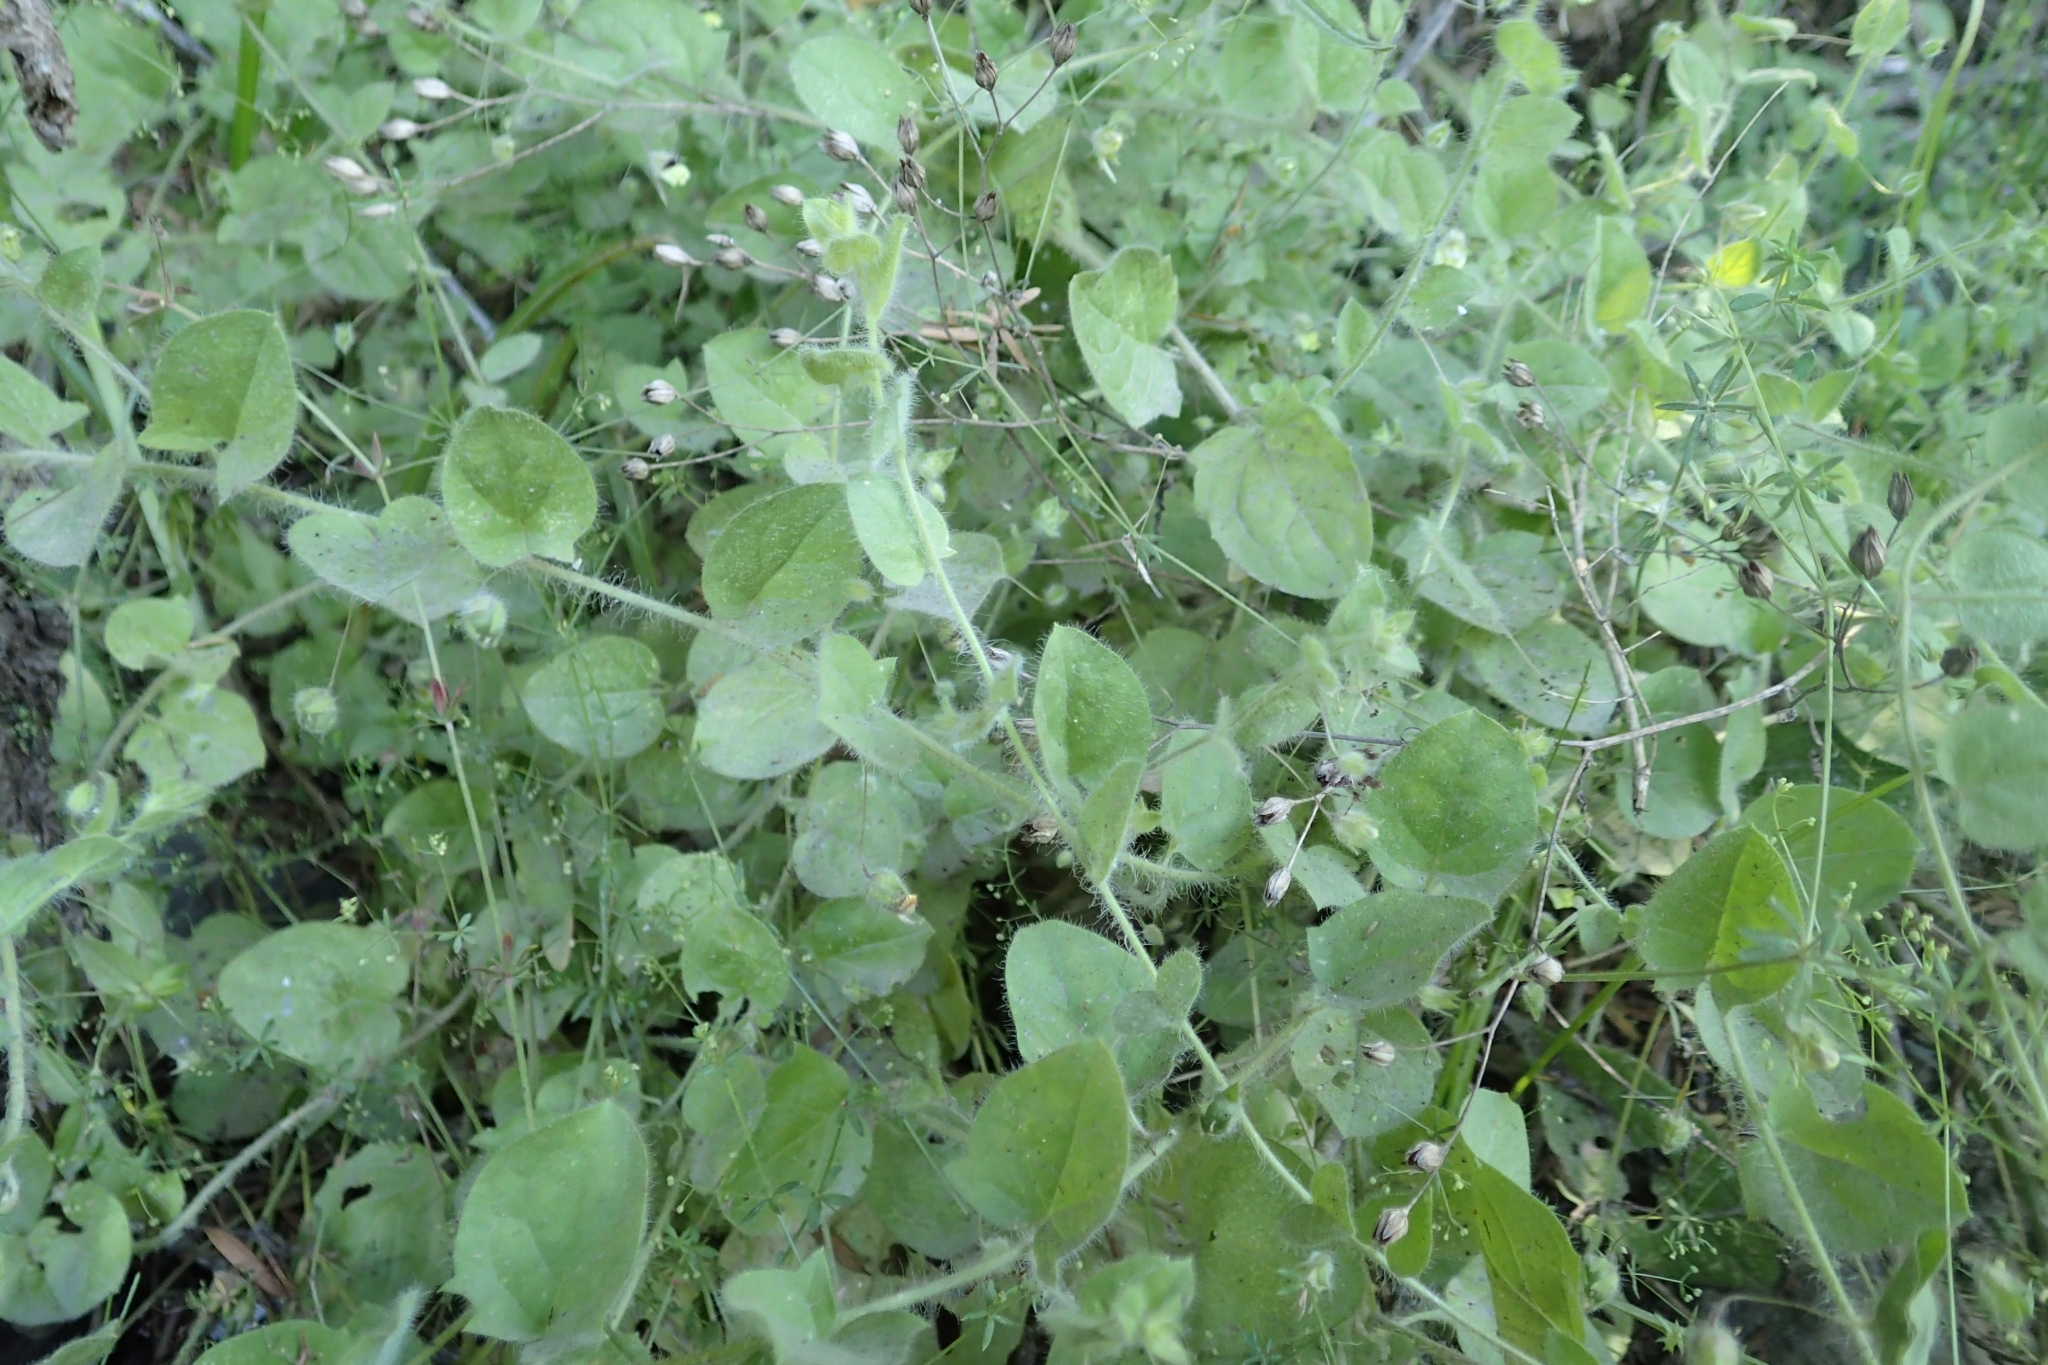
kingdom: Plantae
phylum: Tracheophyta
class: Magnoliopsida
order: Lamiales
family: Plantaginaceae
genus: Kickxia
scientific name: Kickxia elatine
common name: Sharp-leaved fluellen
